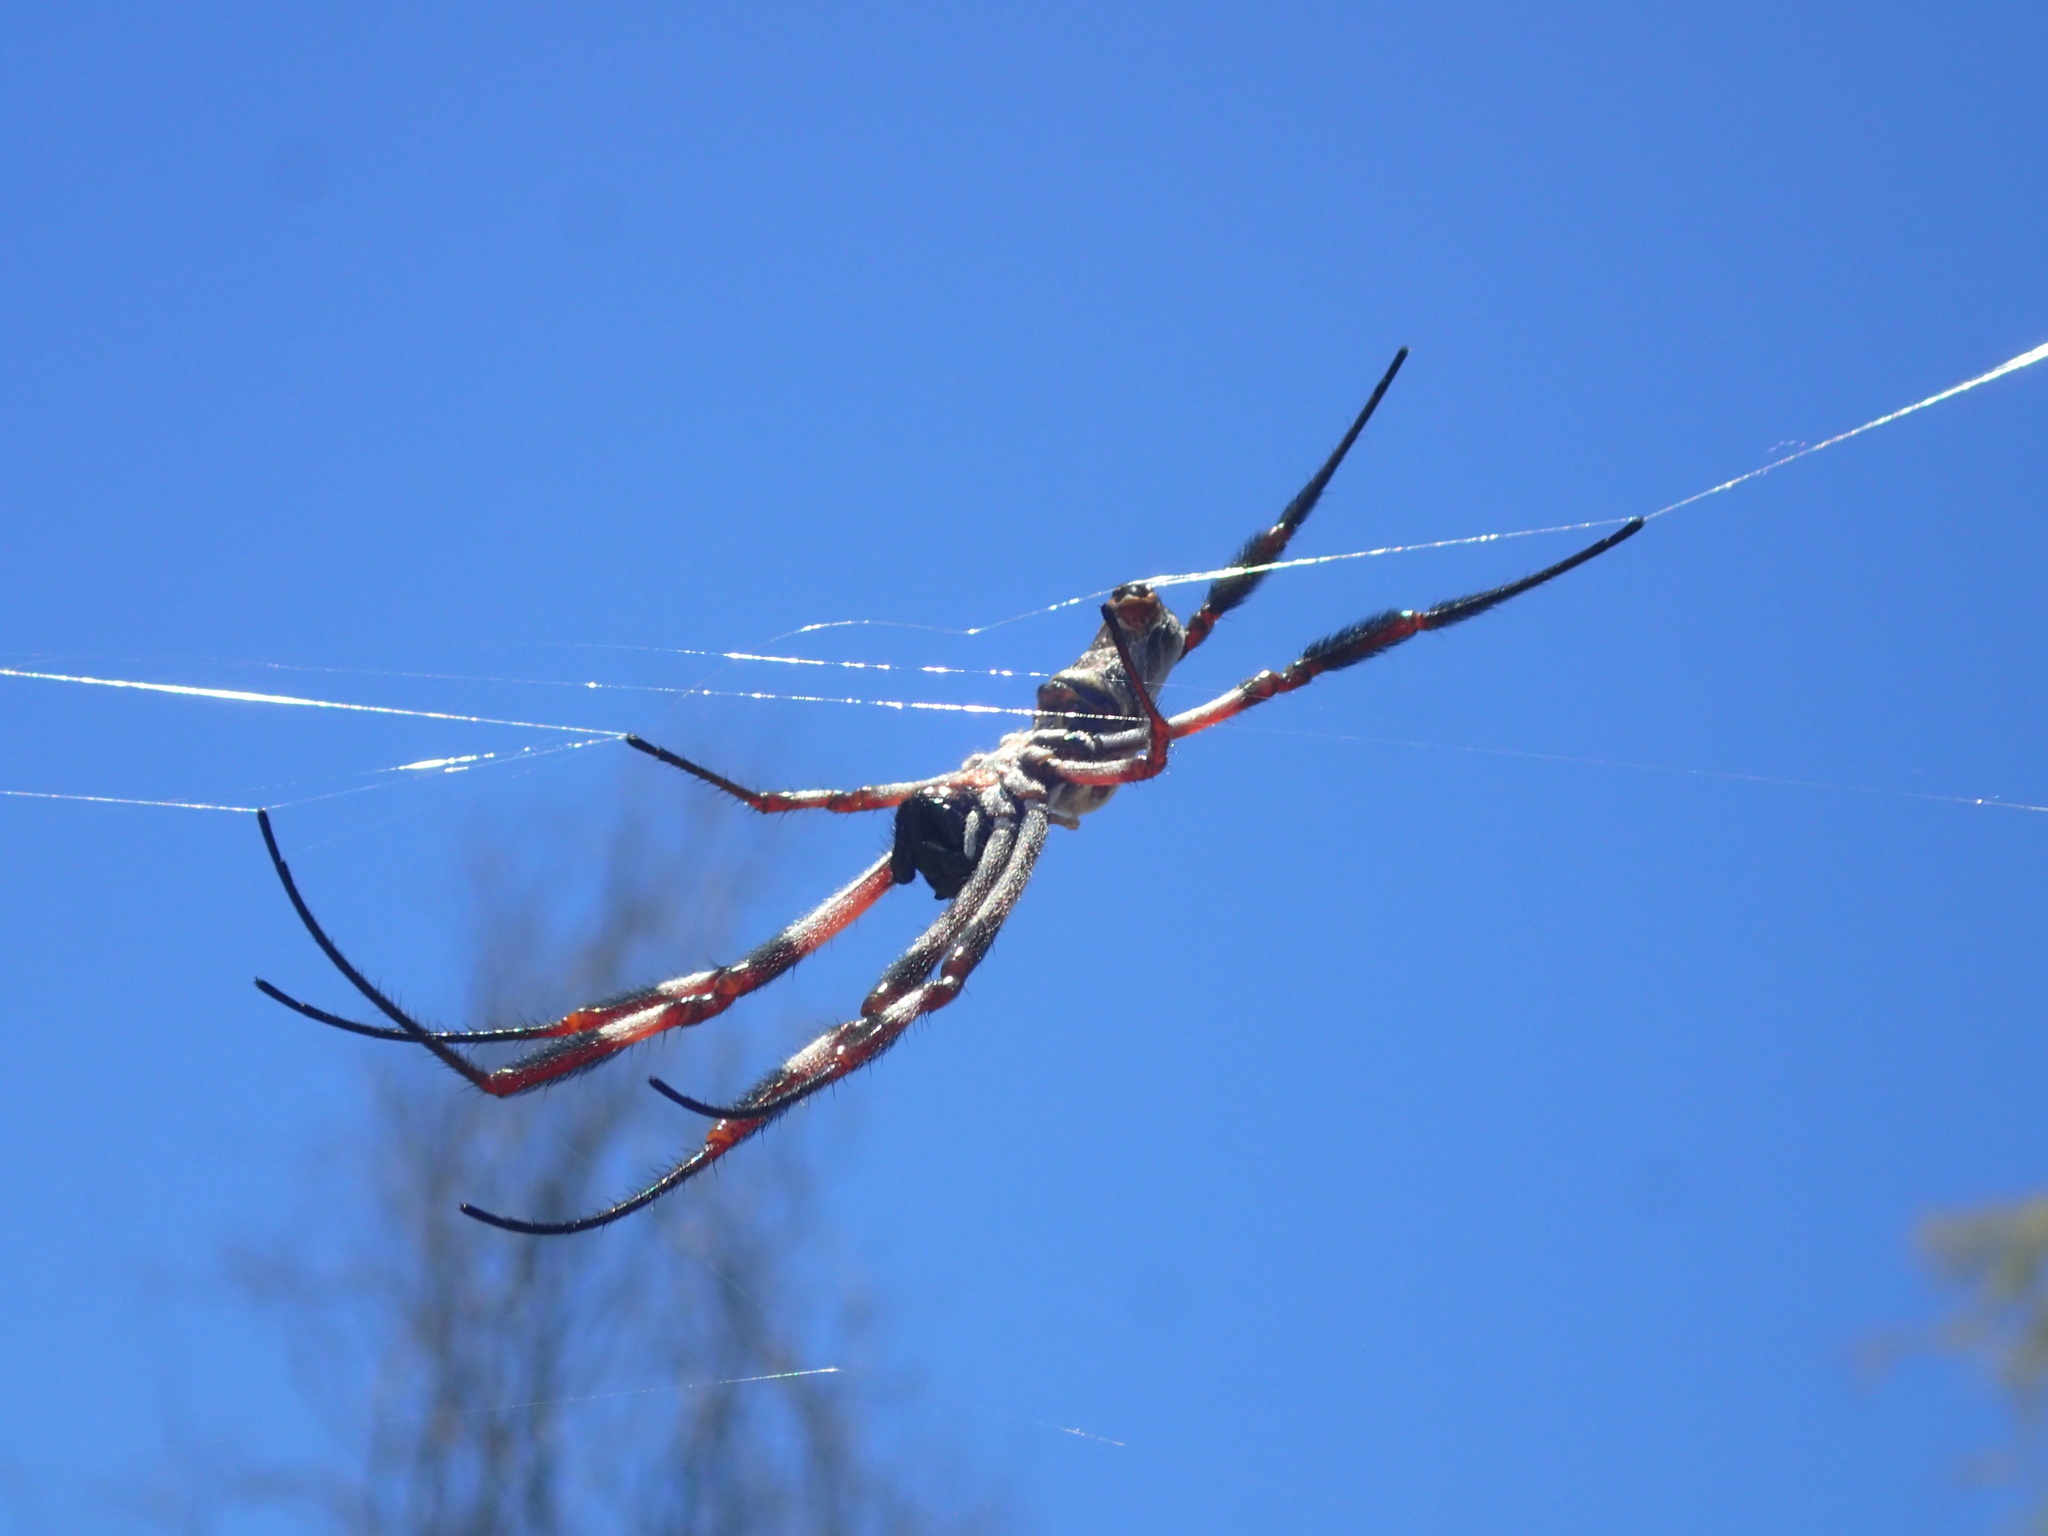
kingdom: Animalia
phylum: Arthropoda
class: Arachnida
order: Araneae
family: Araneidae
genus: Trichonephila
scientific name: Trichonephila edulis
